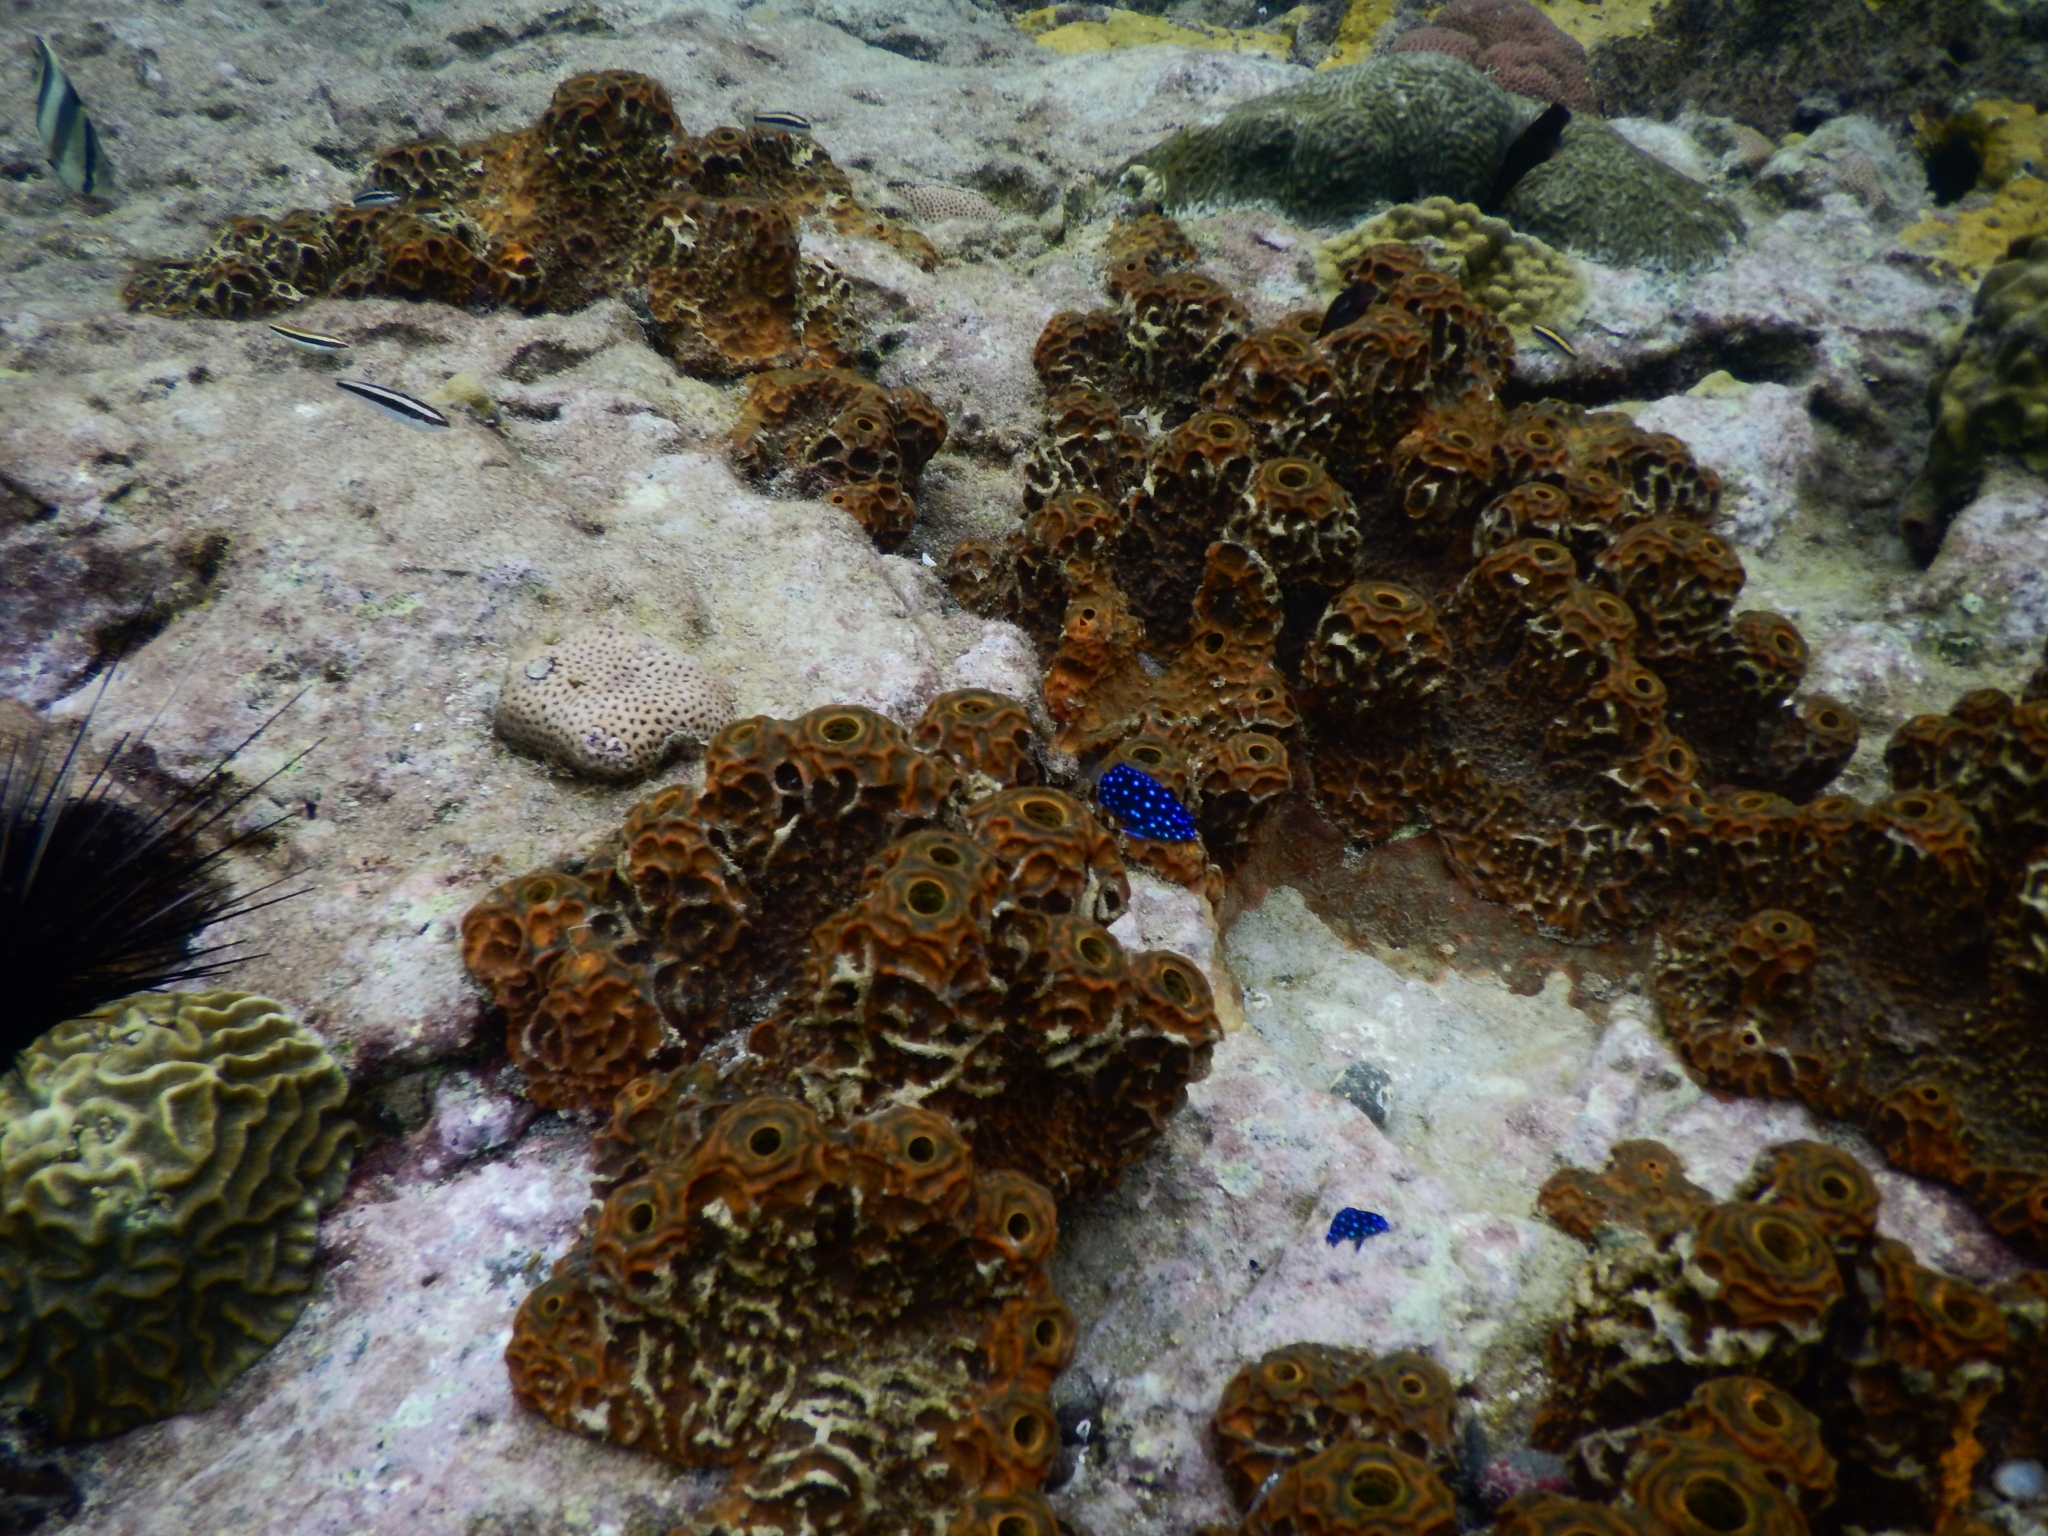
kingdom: Animalia
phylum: Chordata
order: Perciformes
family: Pomacentridae
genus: Microspathodon
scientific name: Microspathodon chrysurus
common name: Yellowtail damselfish
